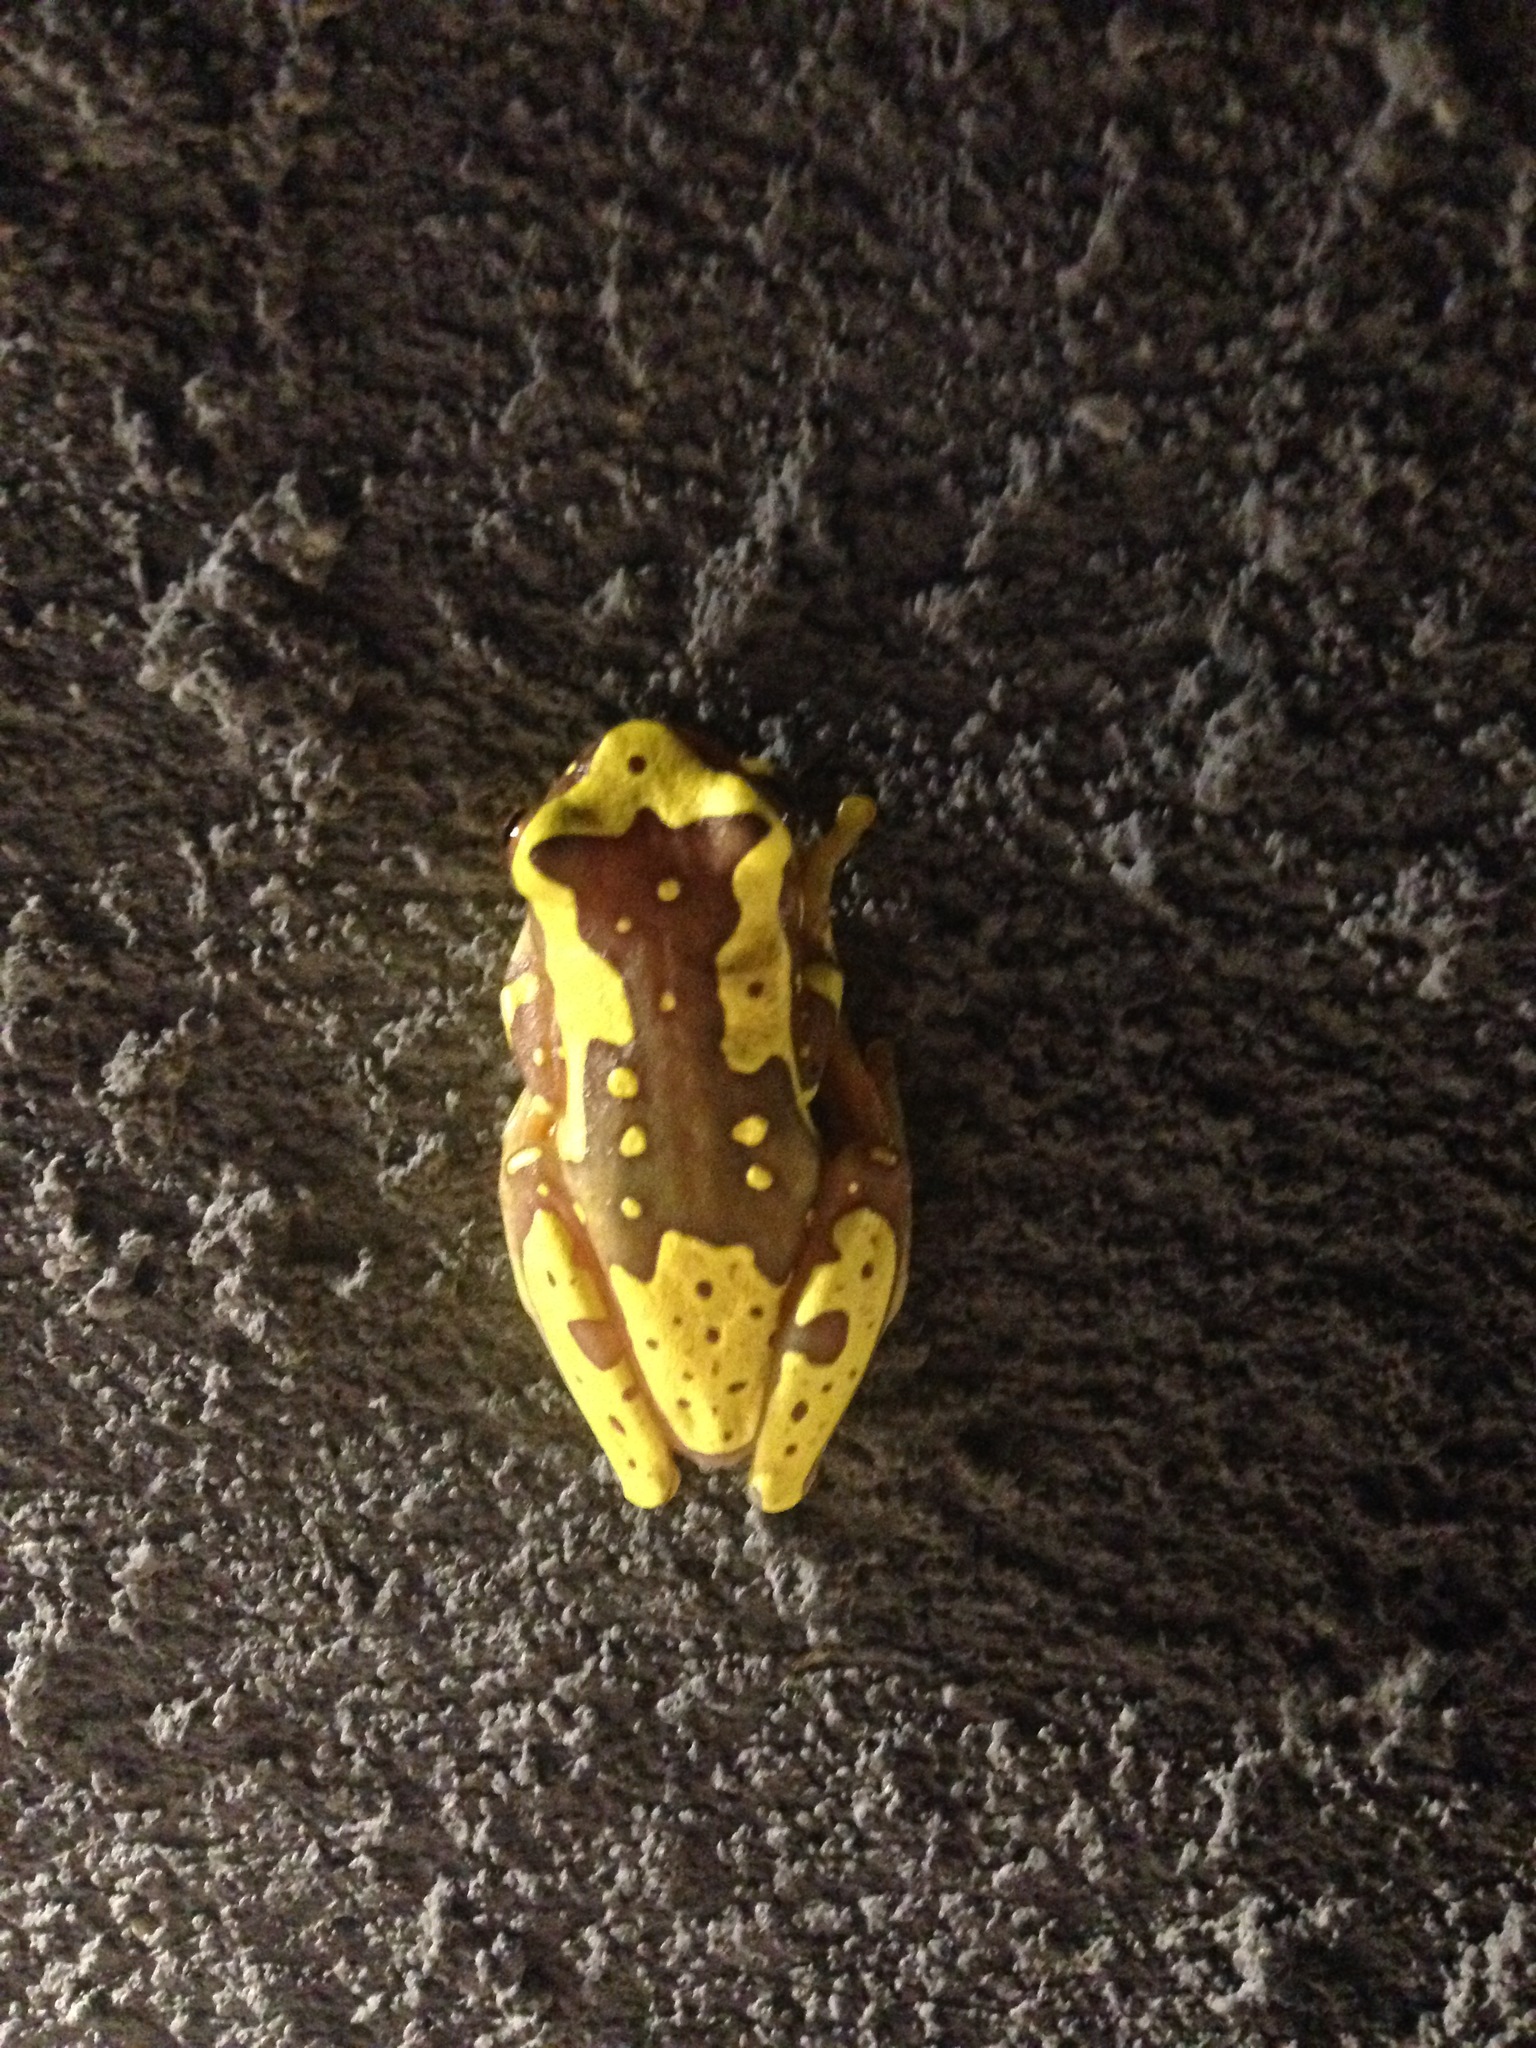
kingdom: Animalia
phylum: Chordata
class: Amphibia
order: Anura
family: Hylidae
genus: Dendropsophus
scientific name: Dendropsophus ebraccatus
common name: Hourglass treefrog
